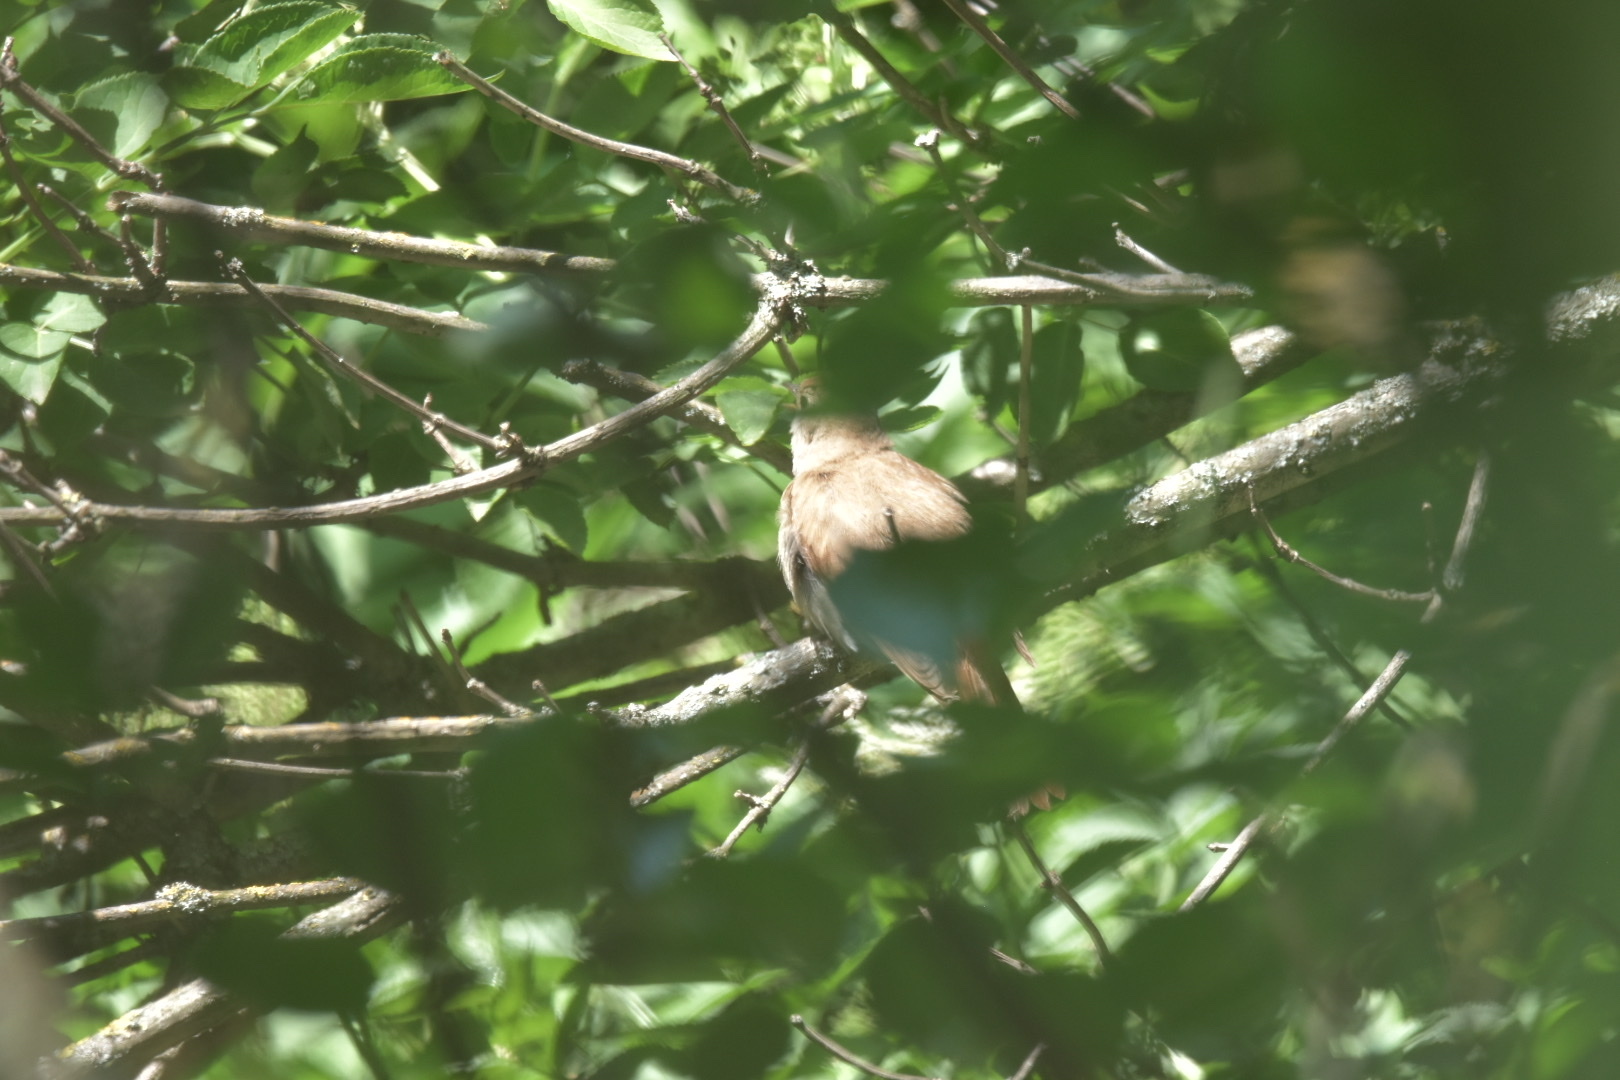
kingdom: Animalia
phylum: Chordata
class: Aves
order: Passeriformes
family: Muscicapidae
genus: Luscinia
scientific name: Luscinia megarhynchos
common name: Common nightingale
